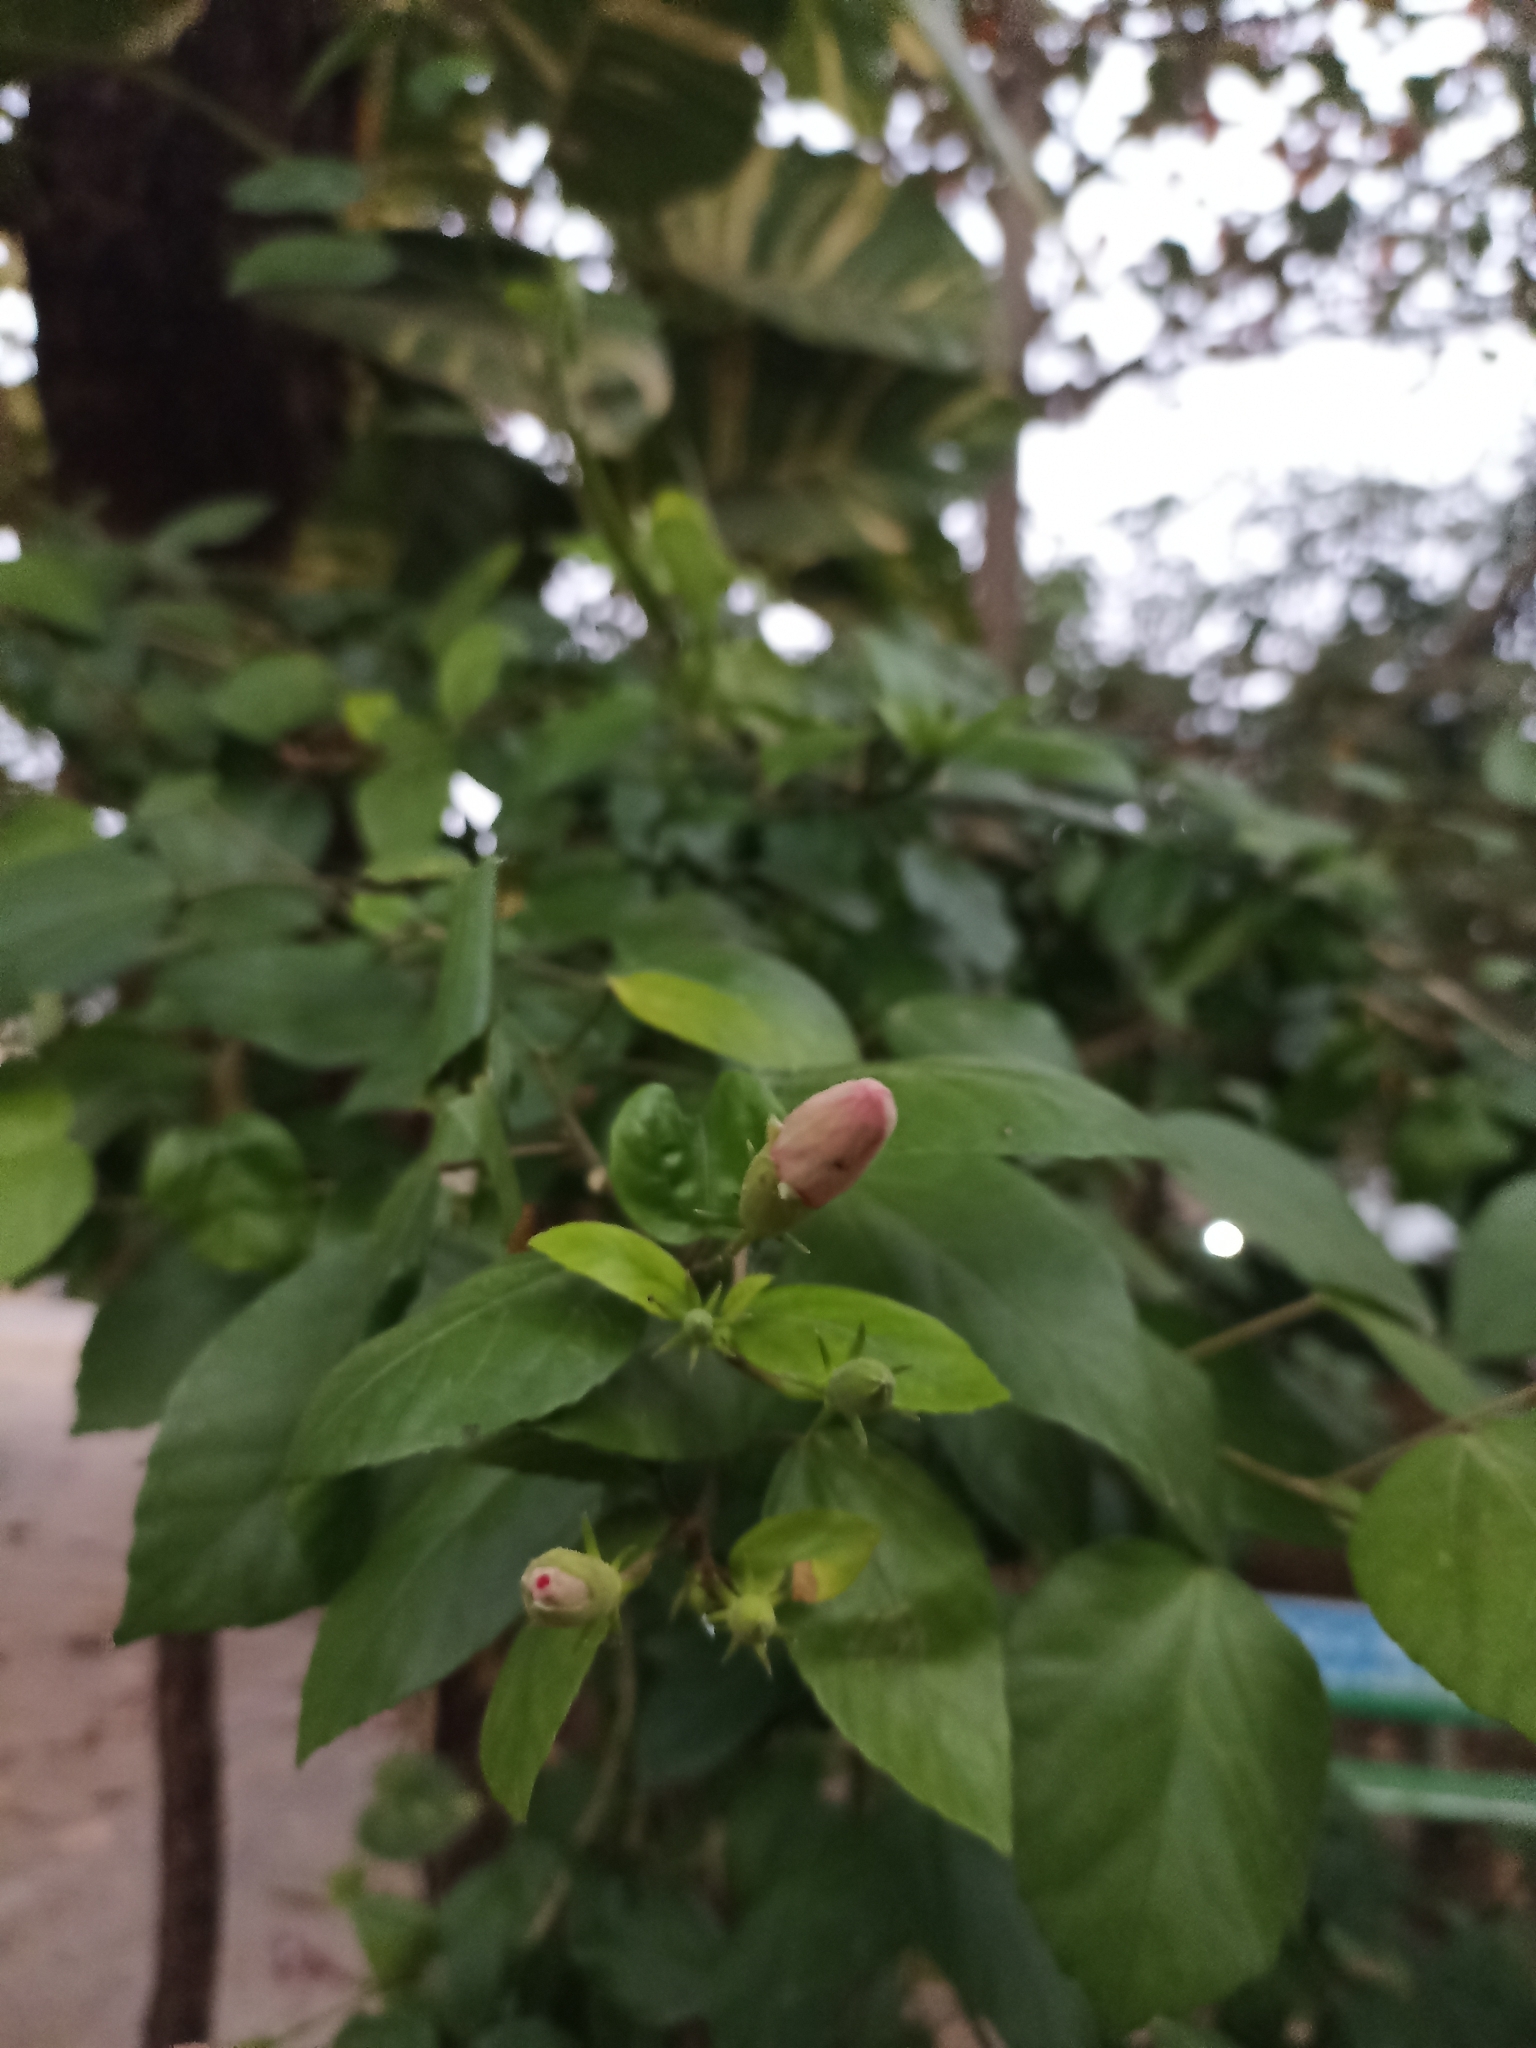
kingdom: Plantae
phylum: Tracheophyta
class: Magnoliopsida
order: Malvales
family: Malvaceae
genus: Hibiscus
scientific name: Hibiscus rosa-sinensis
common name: Hibiscus
